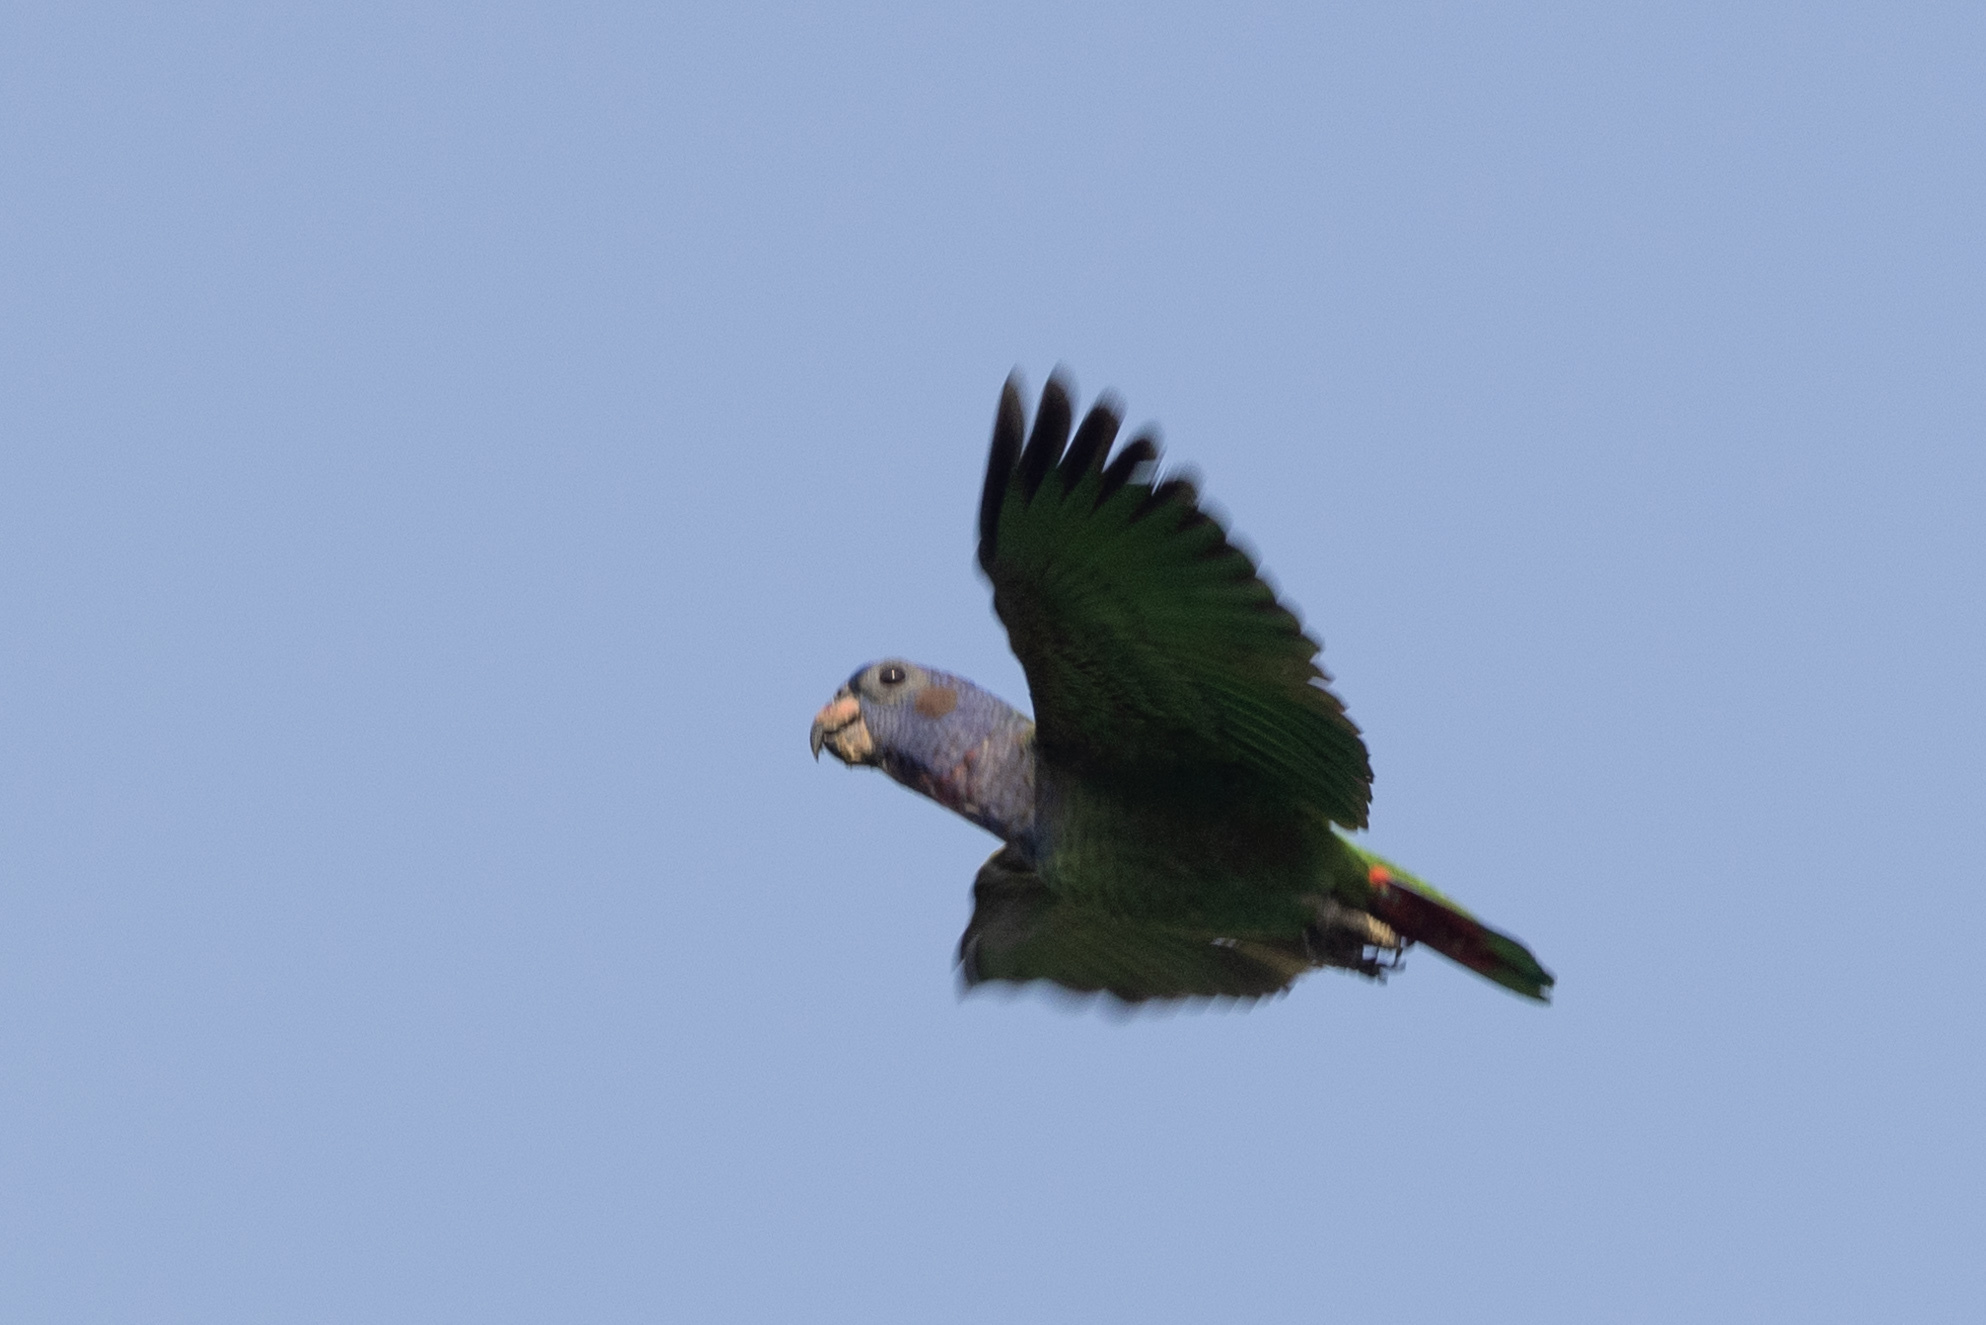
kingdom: Animalia
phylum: Chordata
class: Aves
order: Psittaciformes
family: Psittacidae
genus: Pionus
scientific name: Pionus menstruus
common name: Blue-headed parrot
